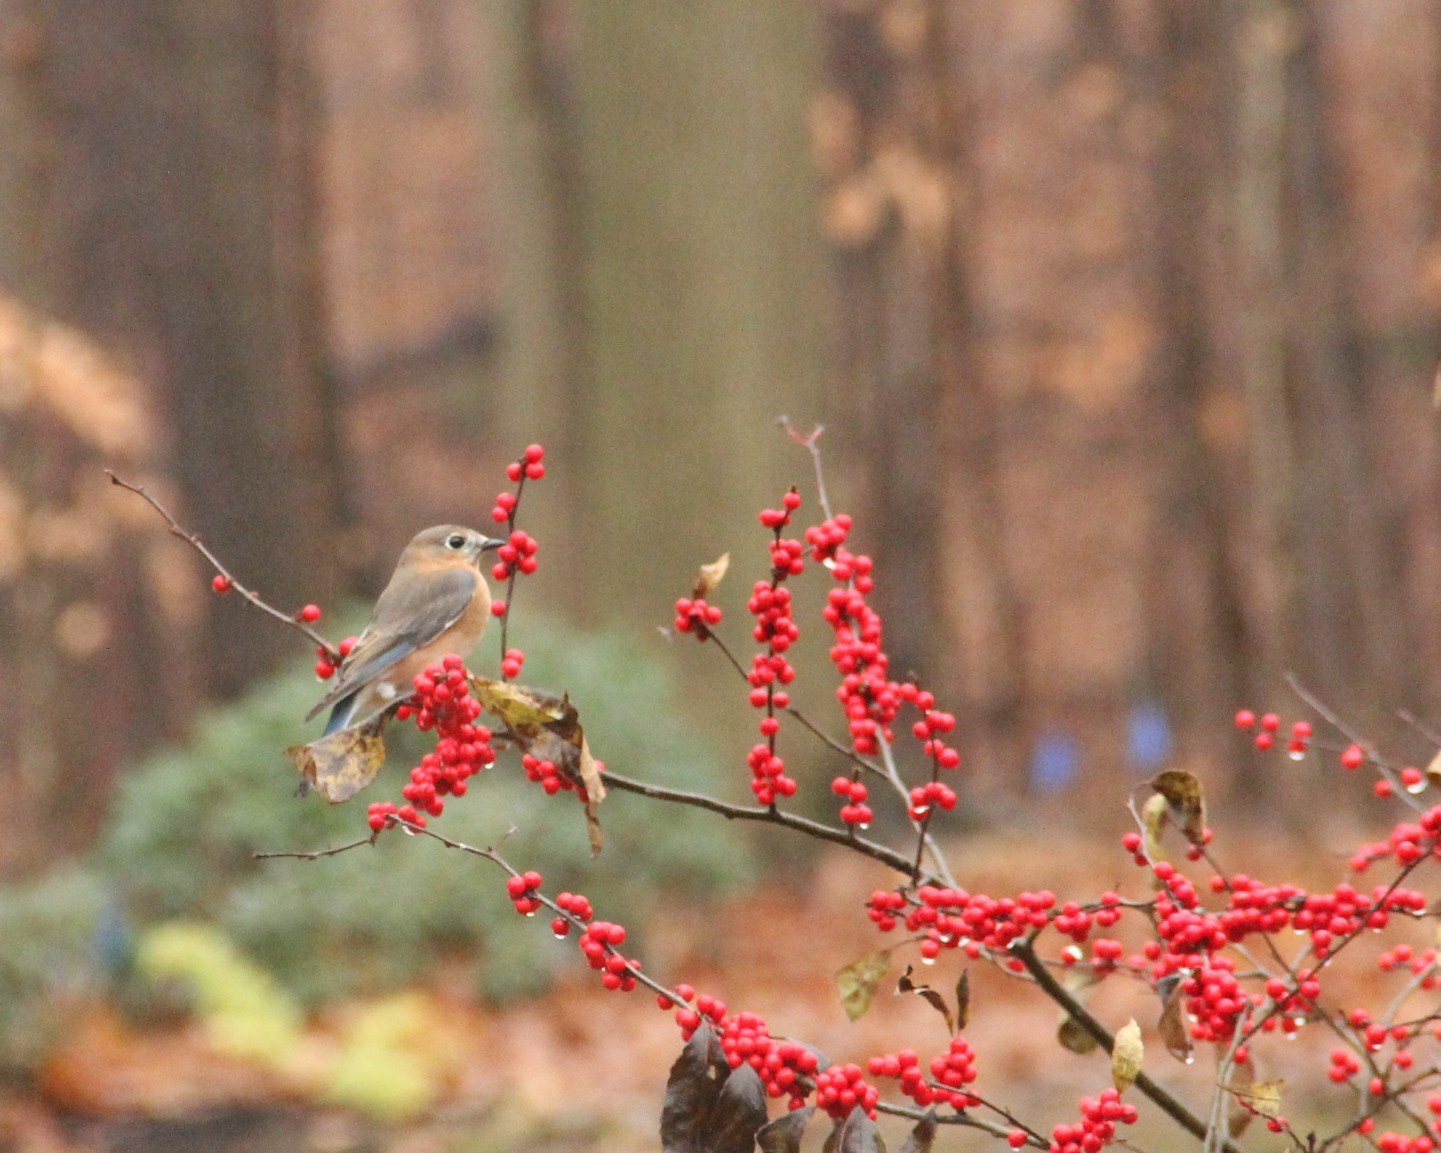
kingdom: Animalia
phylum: Chordata
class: Aves
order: Passeriformes
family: Turdidae
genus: Sialia
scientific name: Sialia sialis
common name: Eastern bluebird
